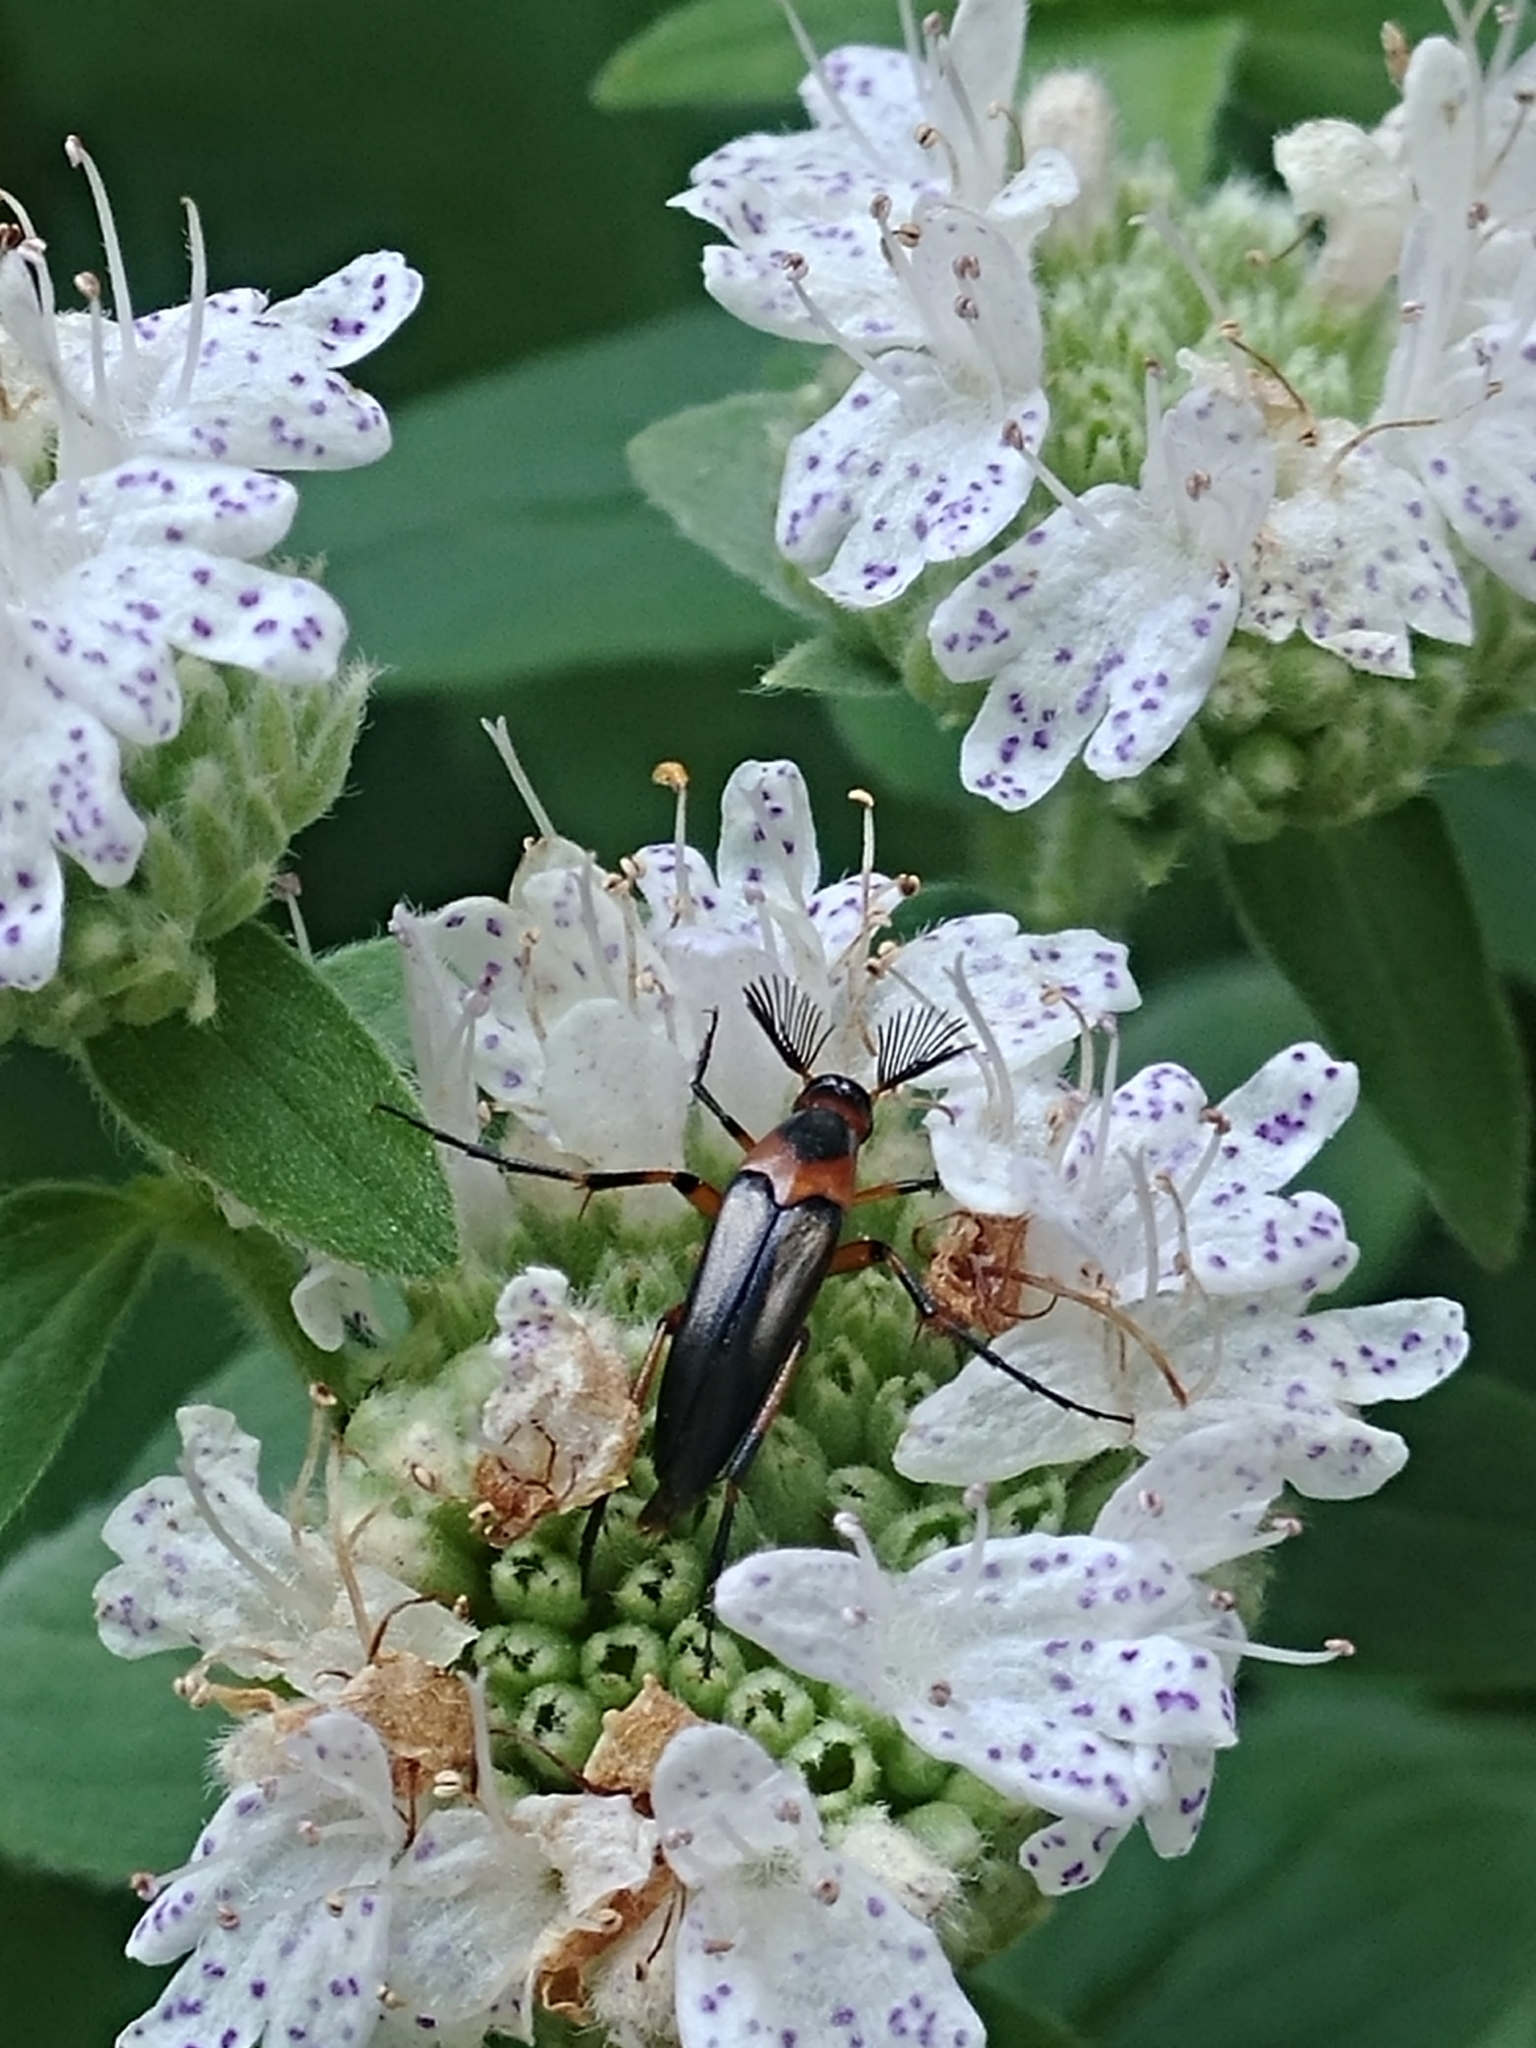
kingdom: Animalia
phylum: Arthropoda
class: Insecta
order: Coleoptera
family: Ripiphoridae
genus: Macrosiagon
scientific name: Macrosiagon limbatum
